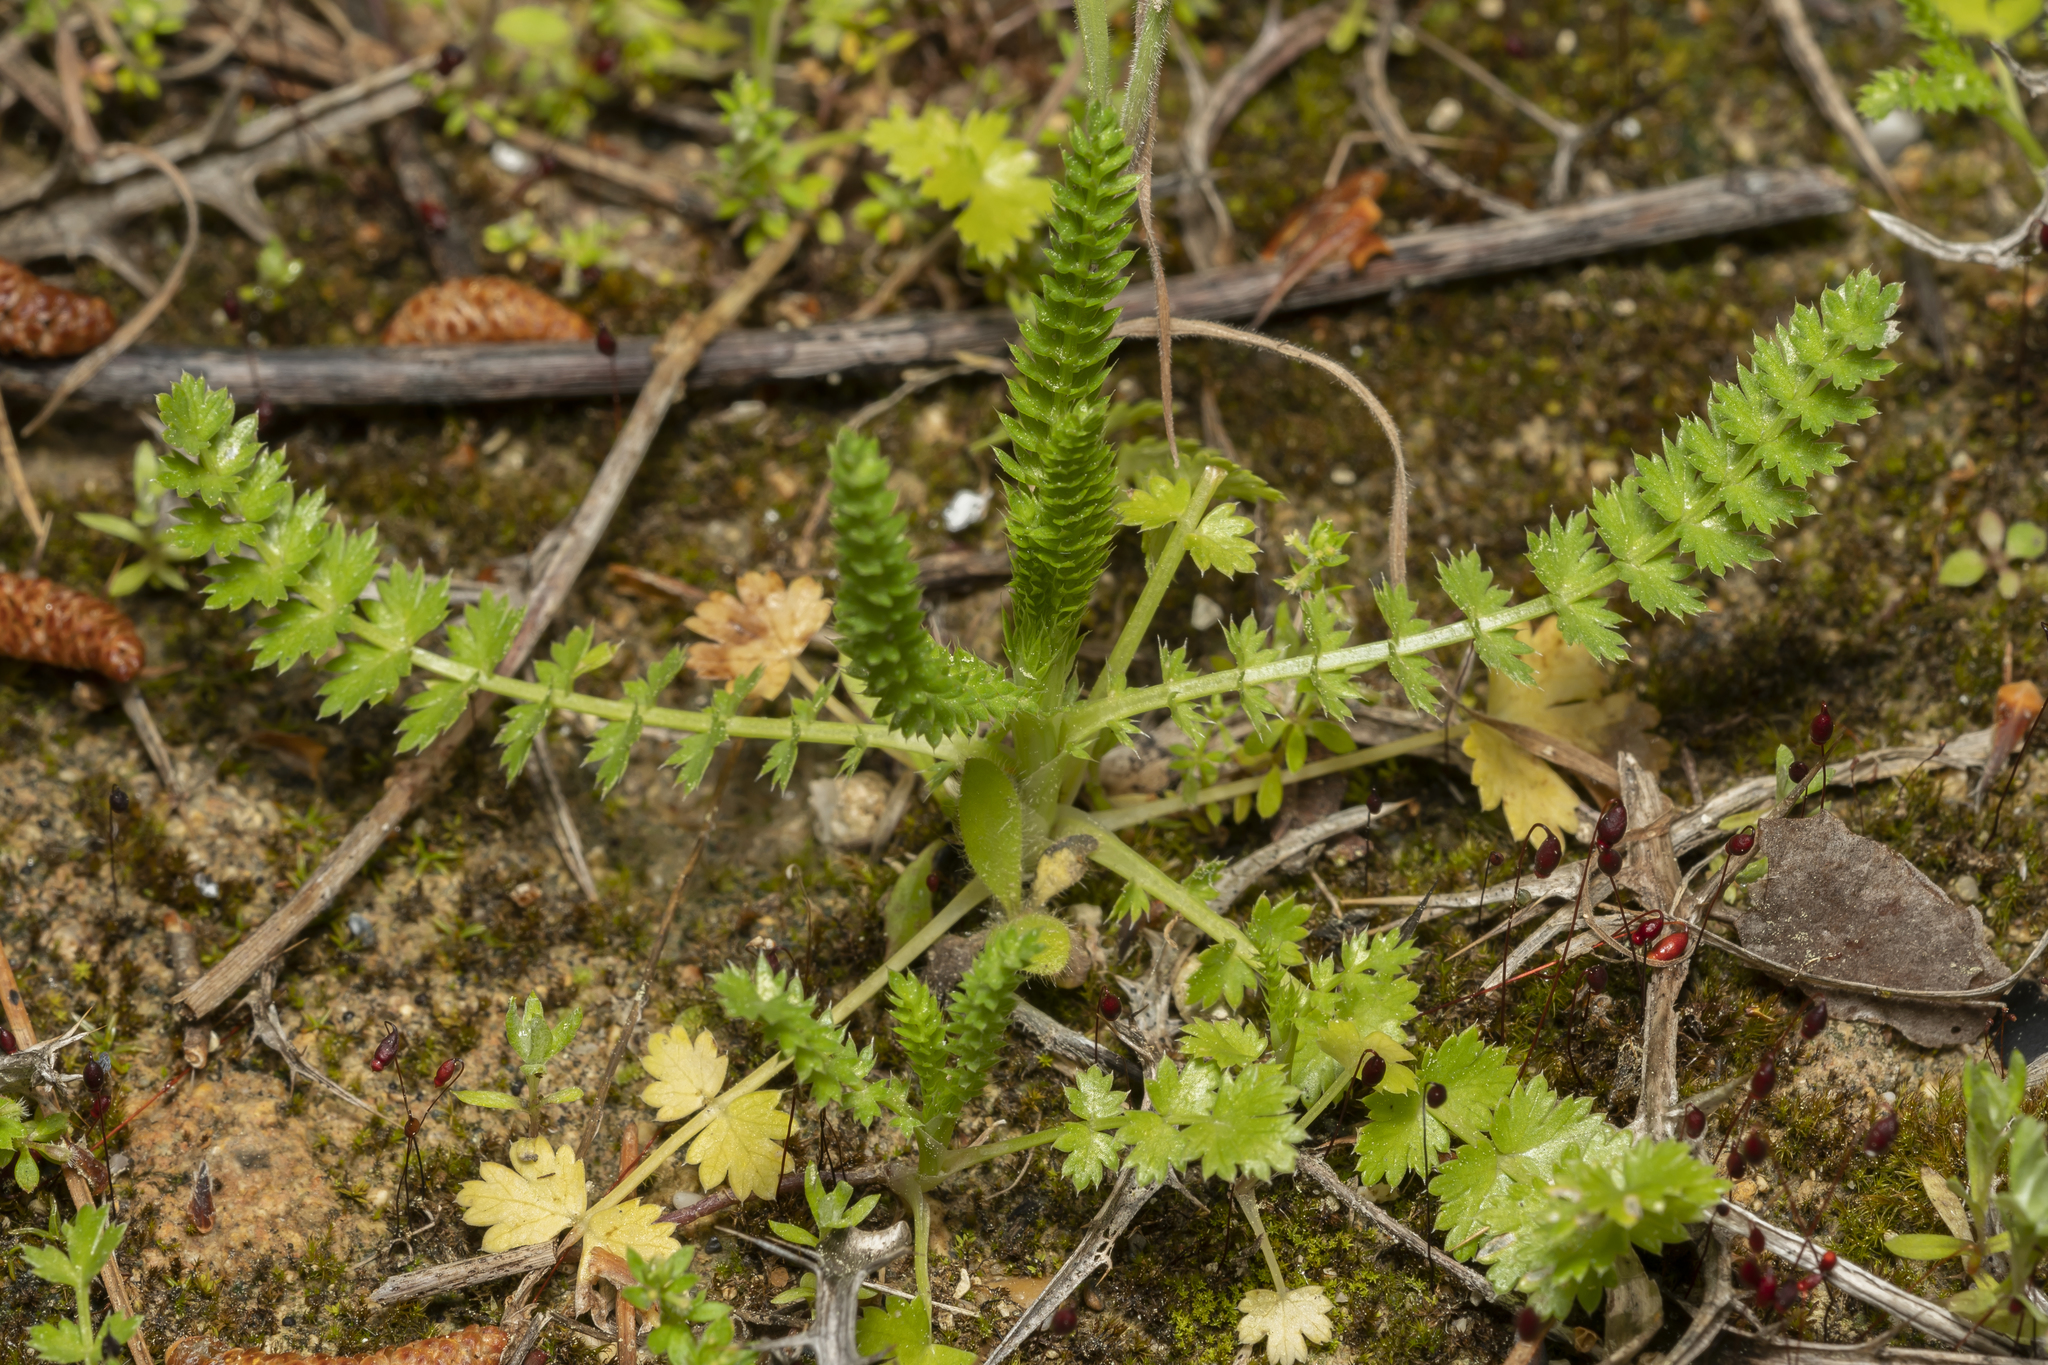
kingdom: Plantae
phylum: Tracheophyta
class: Magnoliopsida
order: Apiales
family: Apiaceae
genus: Lagoecia
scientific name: Lagoecia cuminoides
